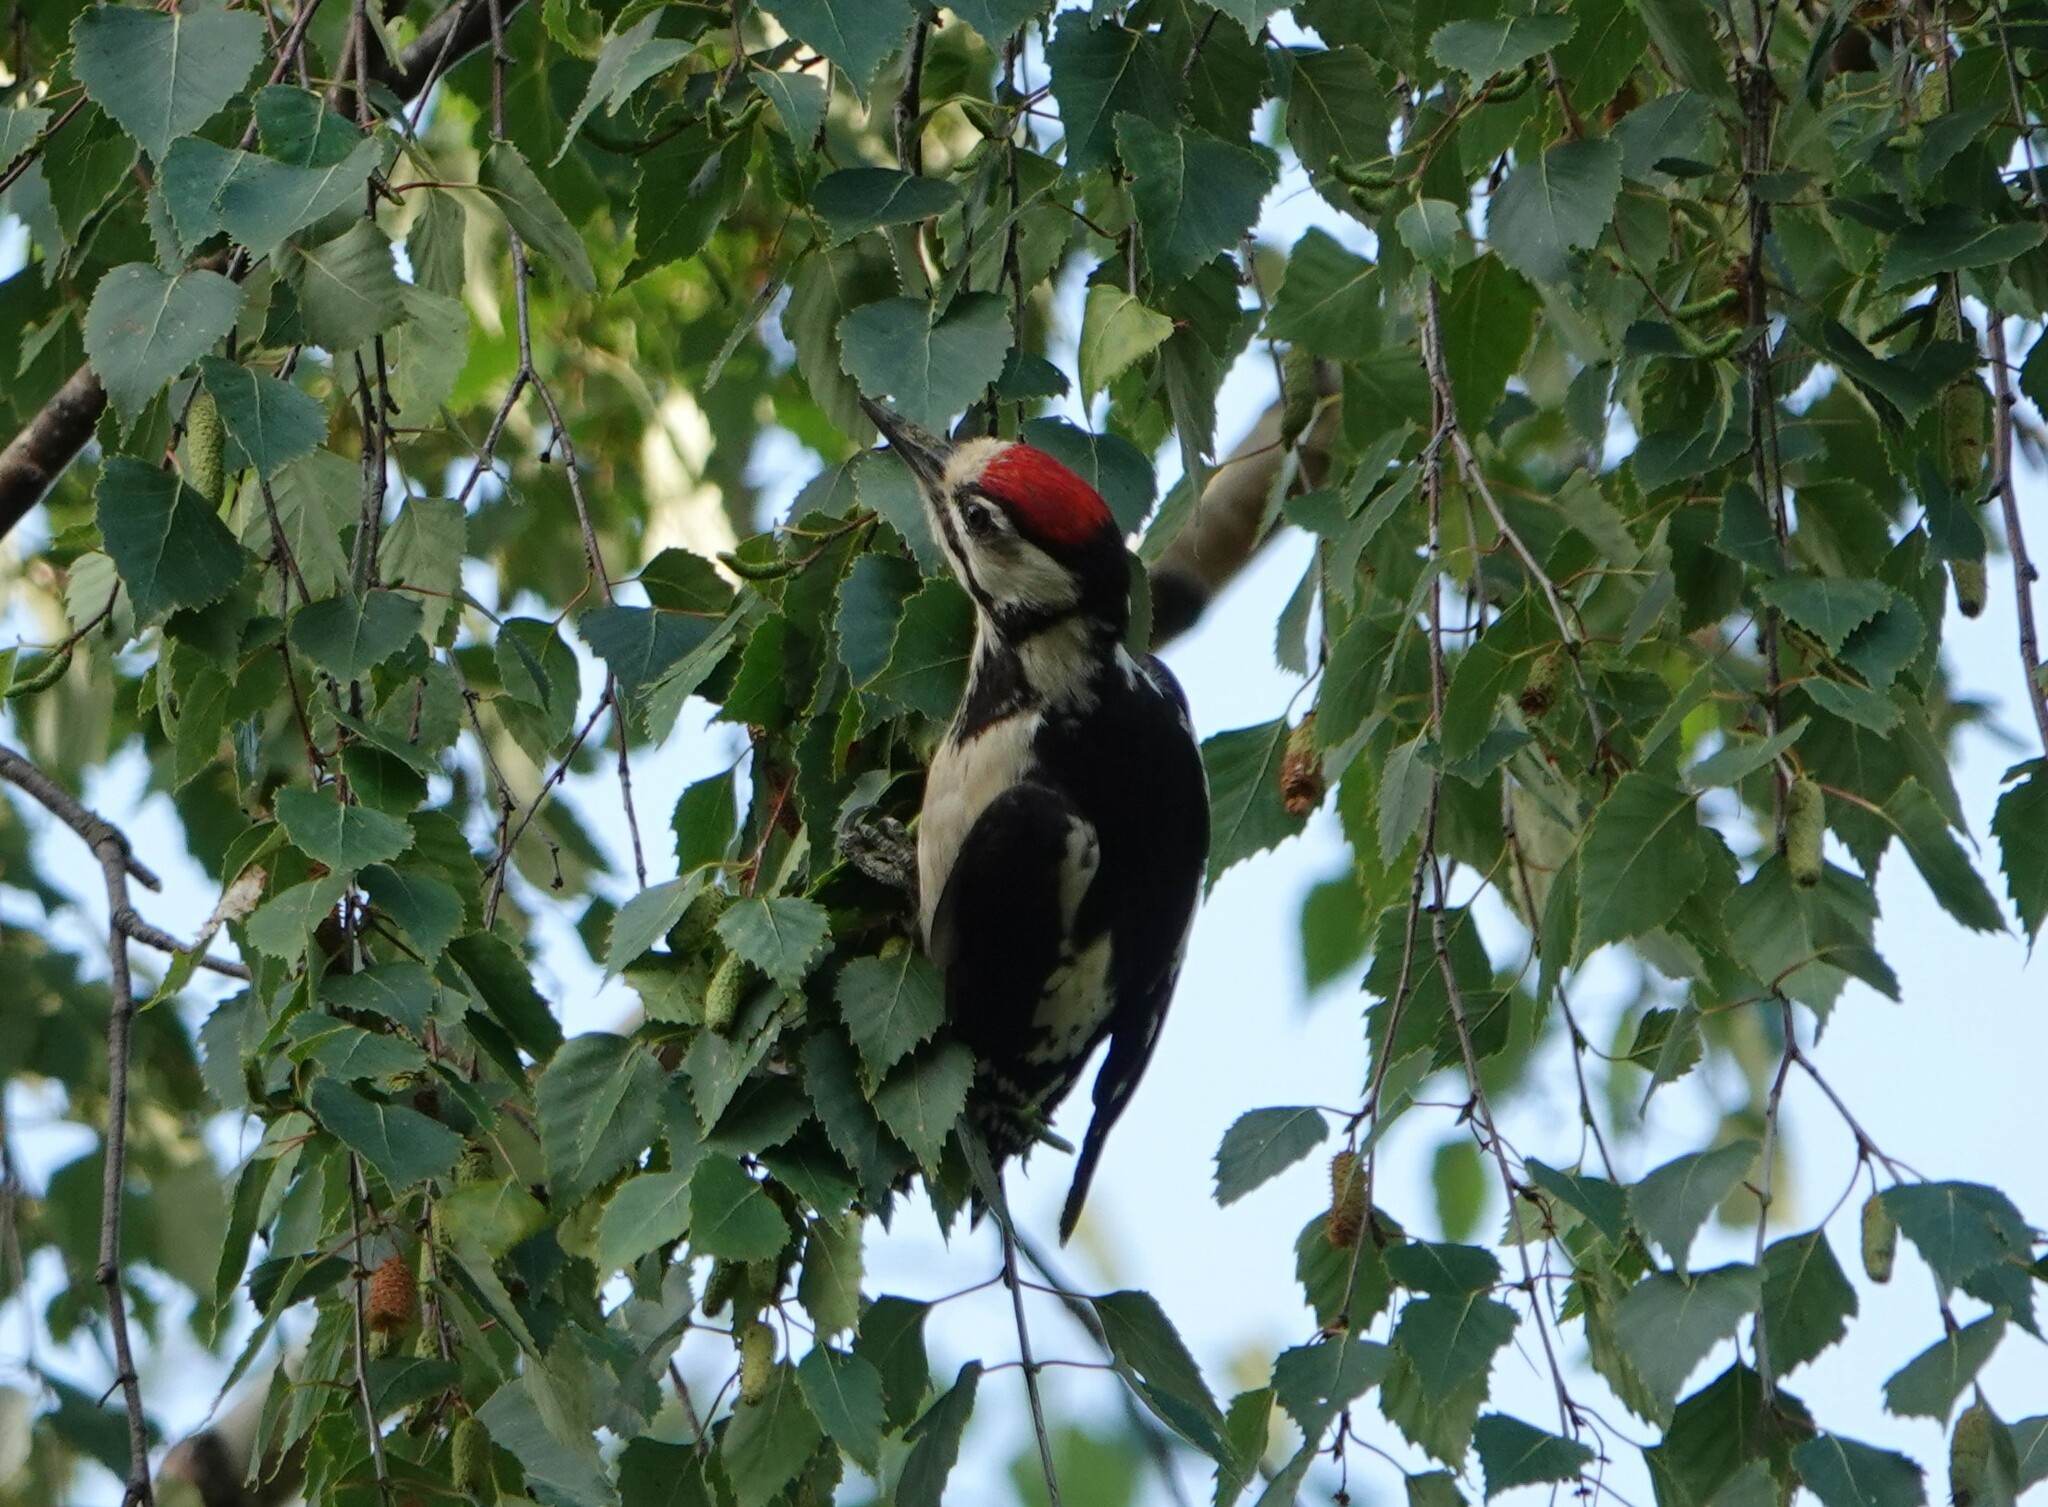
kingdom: Animalia
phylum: Chordata
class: Aves
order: Piciformes
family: Picidae
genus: Dendrocopos
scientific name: Dendrocopos major
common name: Great spotted woodpecker
